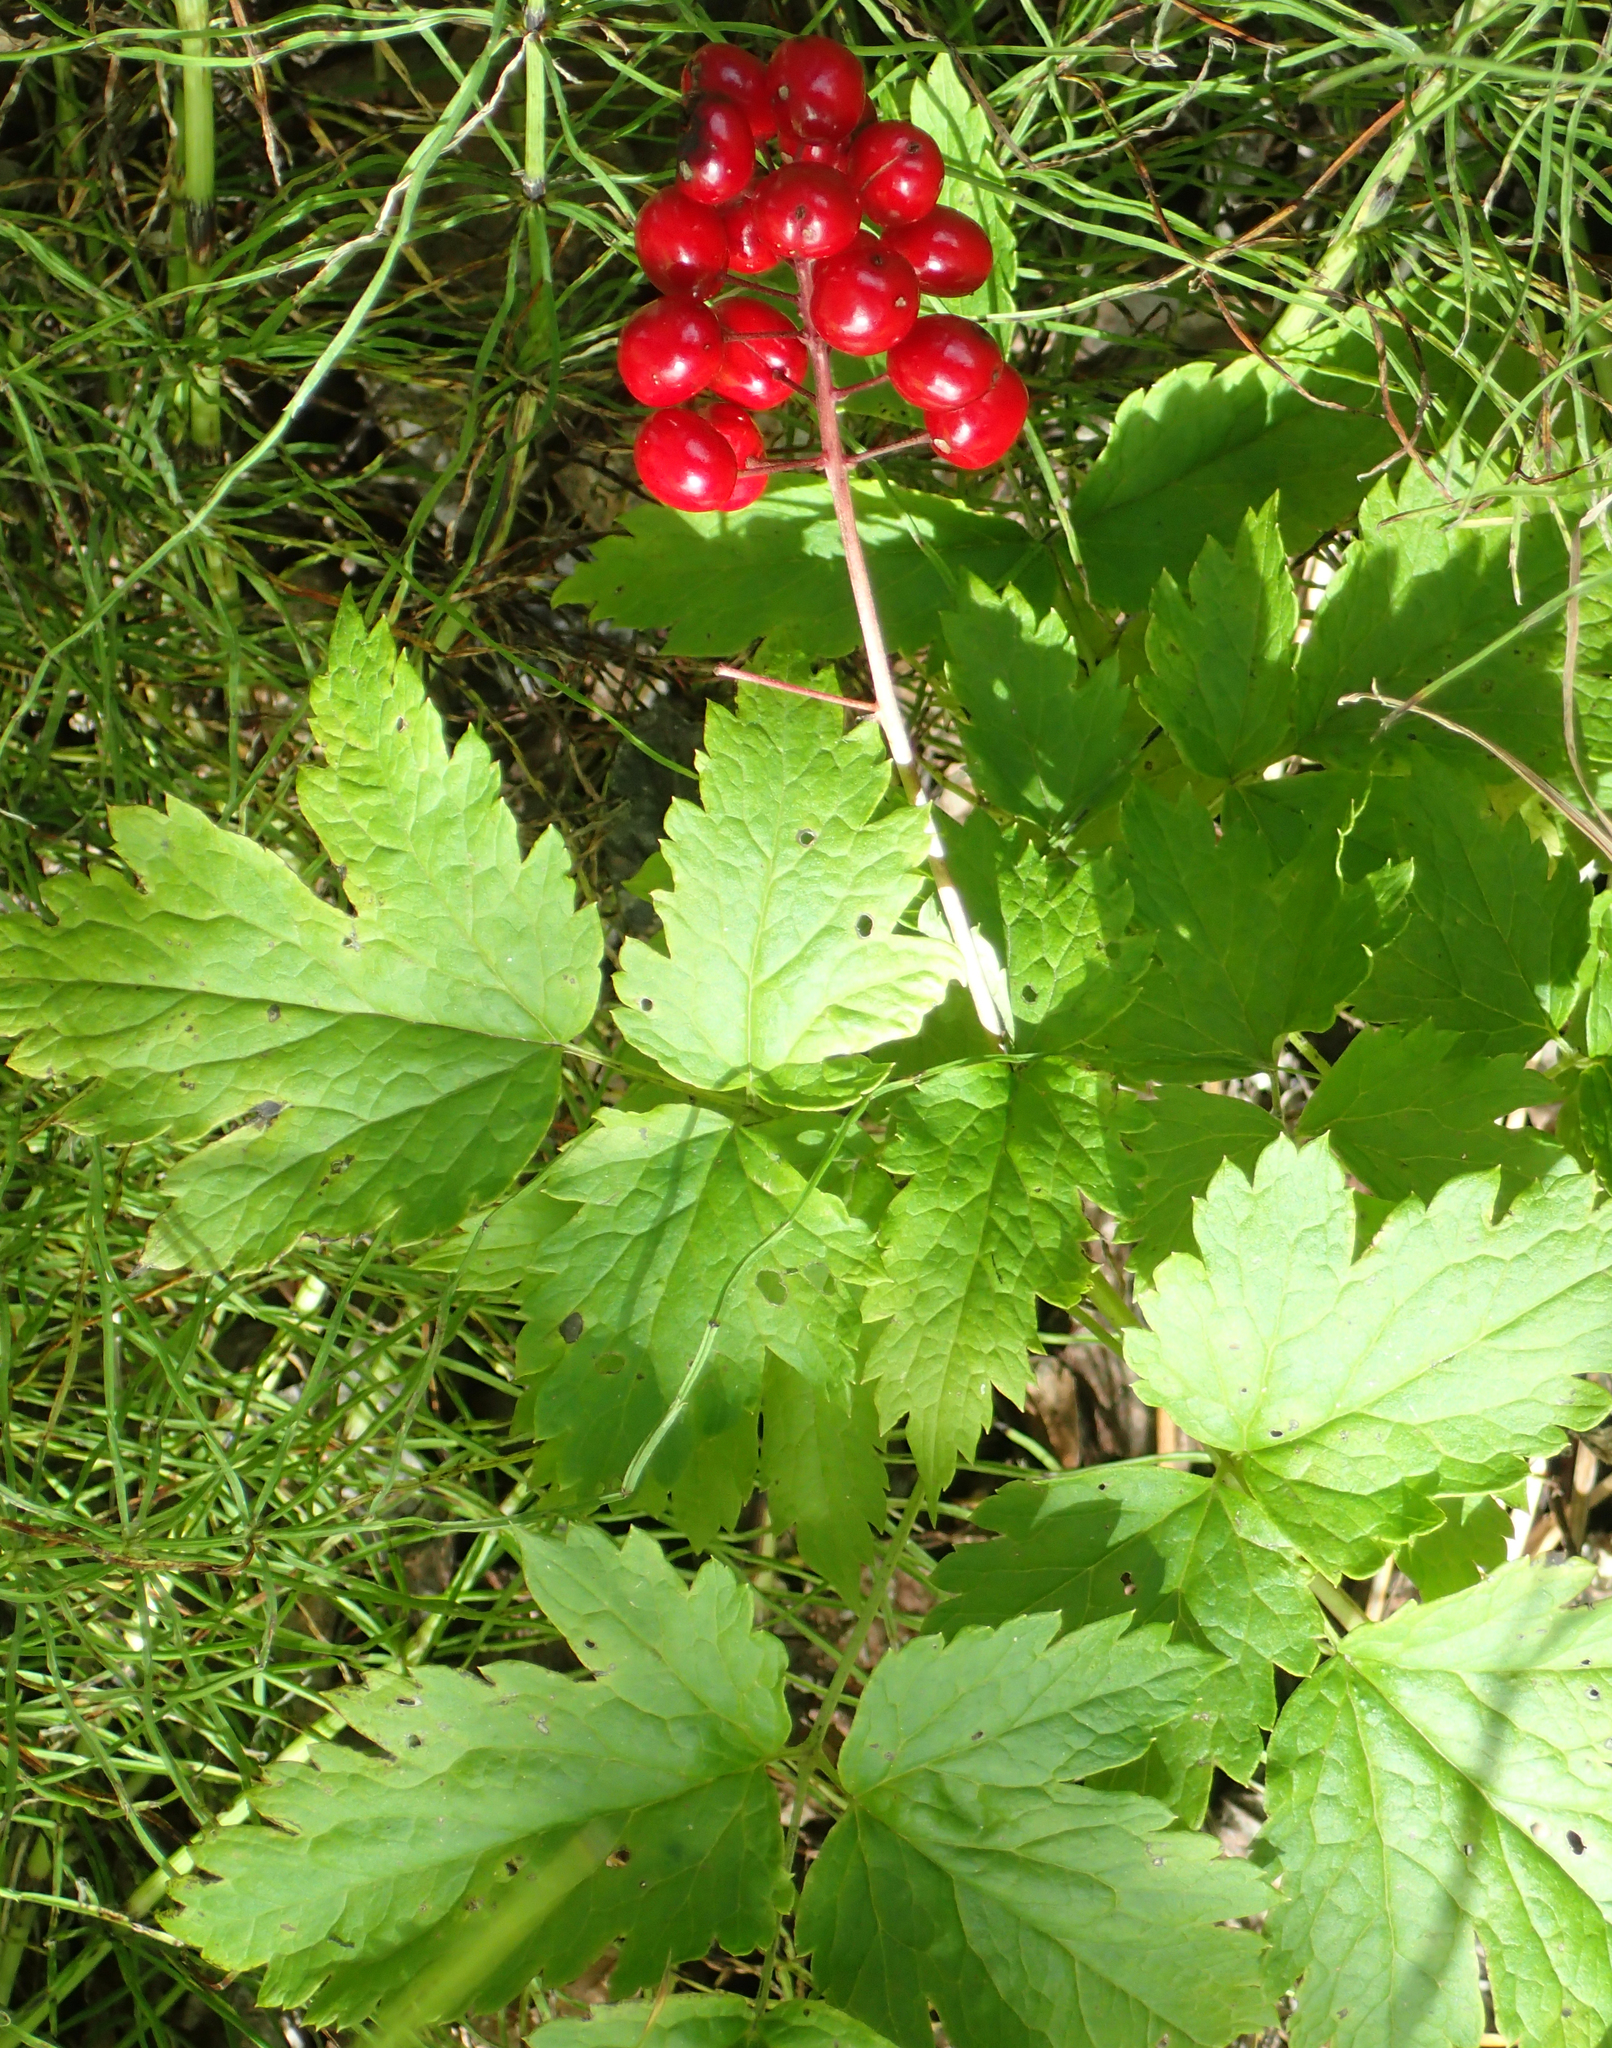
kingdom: Plantae
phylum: Tracheophyta
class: Magnoliopsida
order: Ranunculales
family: Ranunculaceae
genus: Actaea
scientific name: Actaea rubra
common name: Red baneberry
